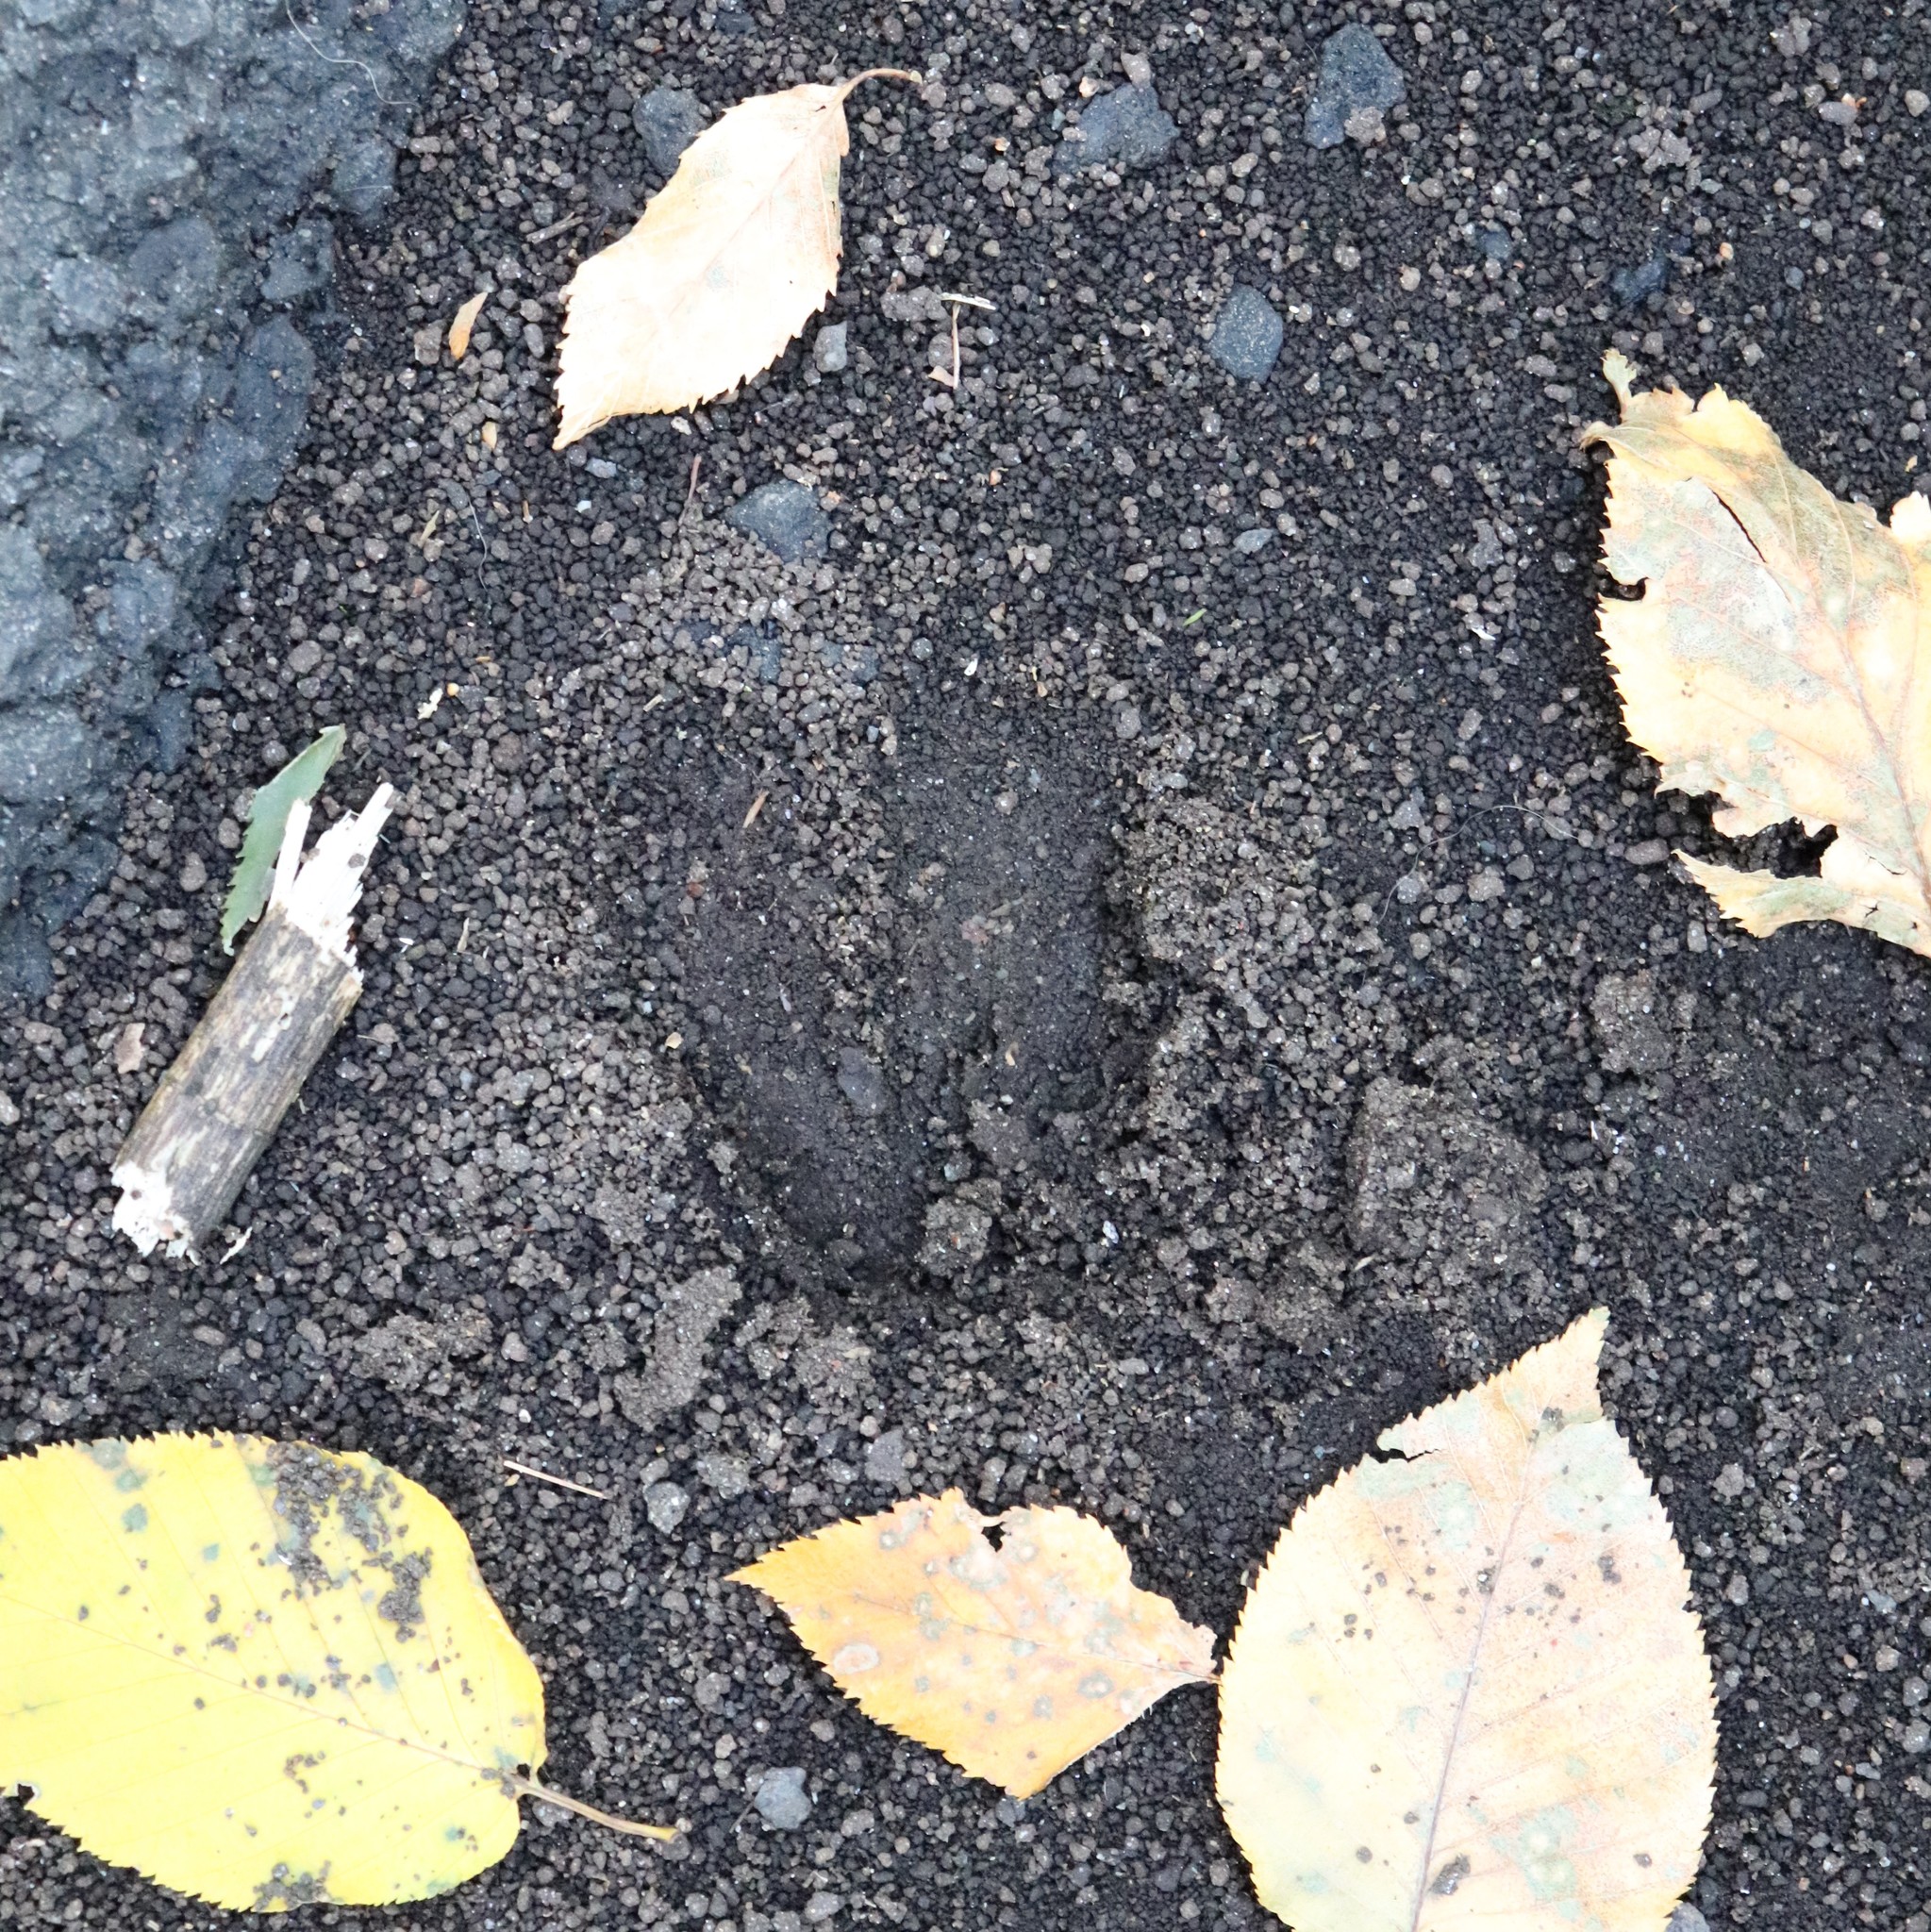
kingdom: Animalia
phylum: Chordata
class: Mammalia
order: Artiodactyla
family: Cervidae
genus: Odocoileus
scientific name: Odocoileus virginianus
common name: White-tailed deer
